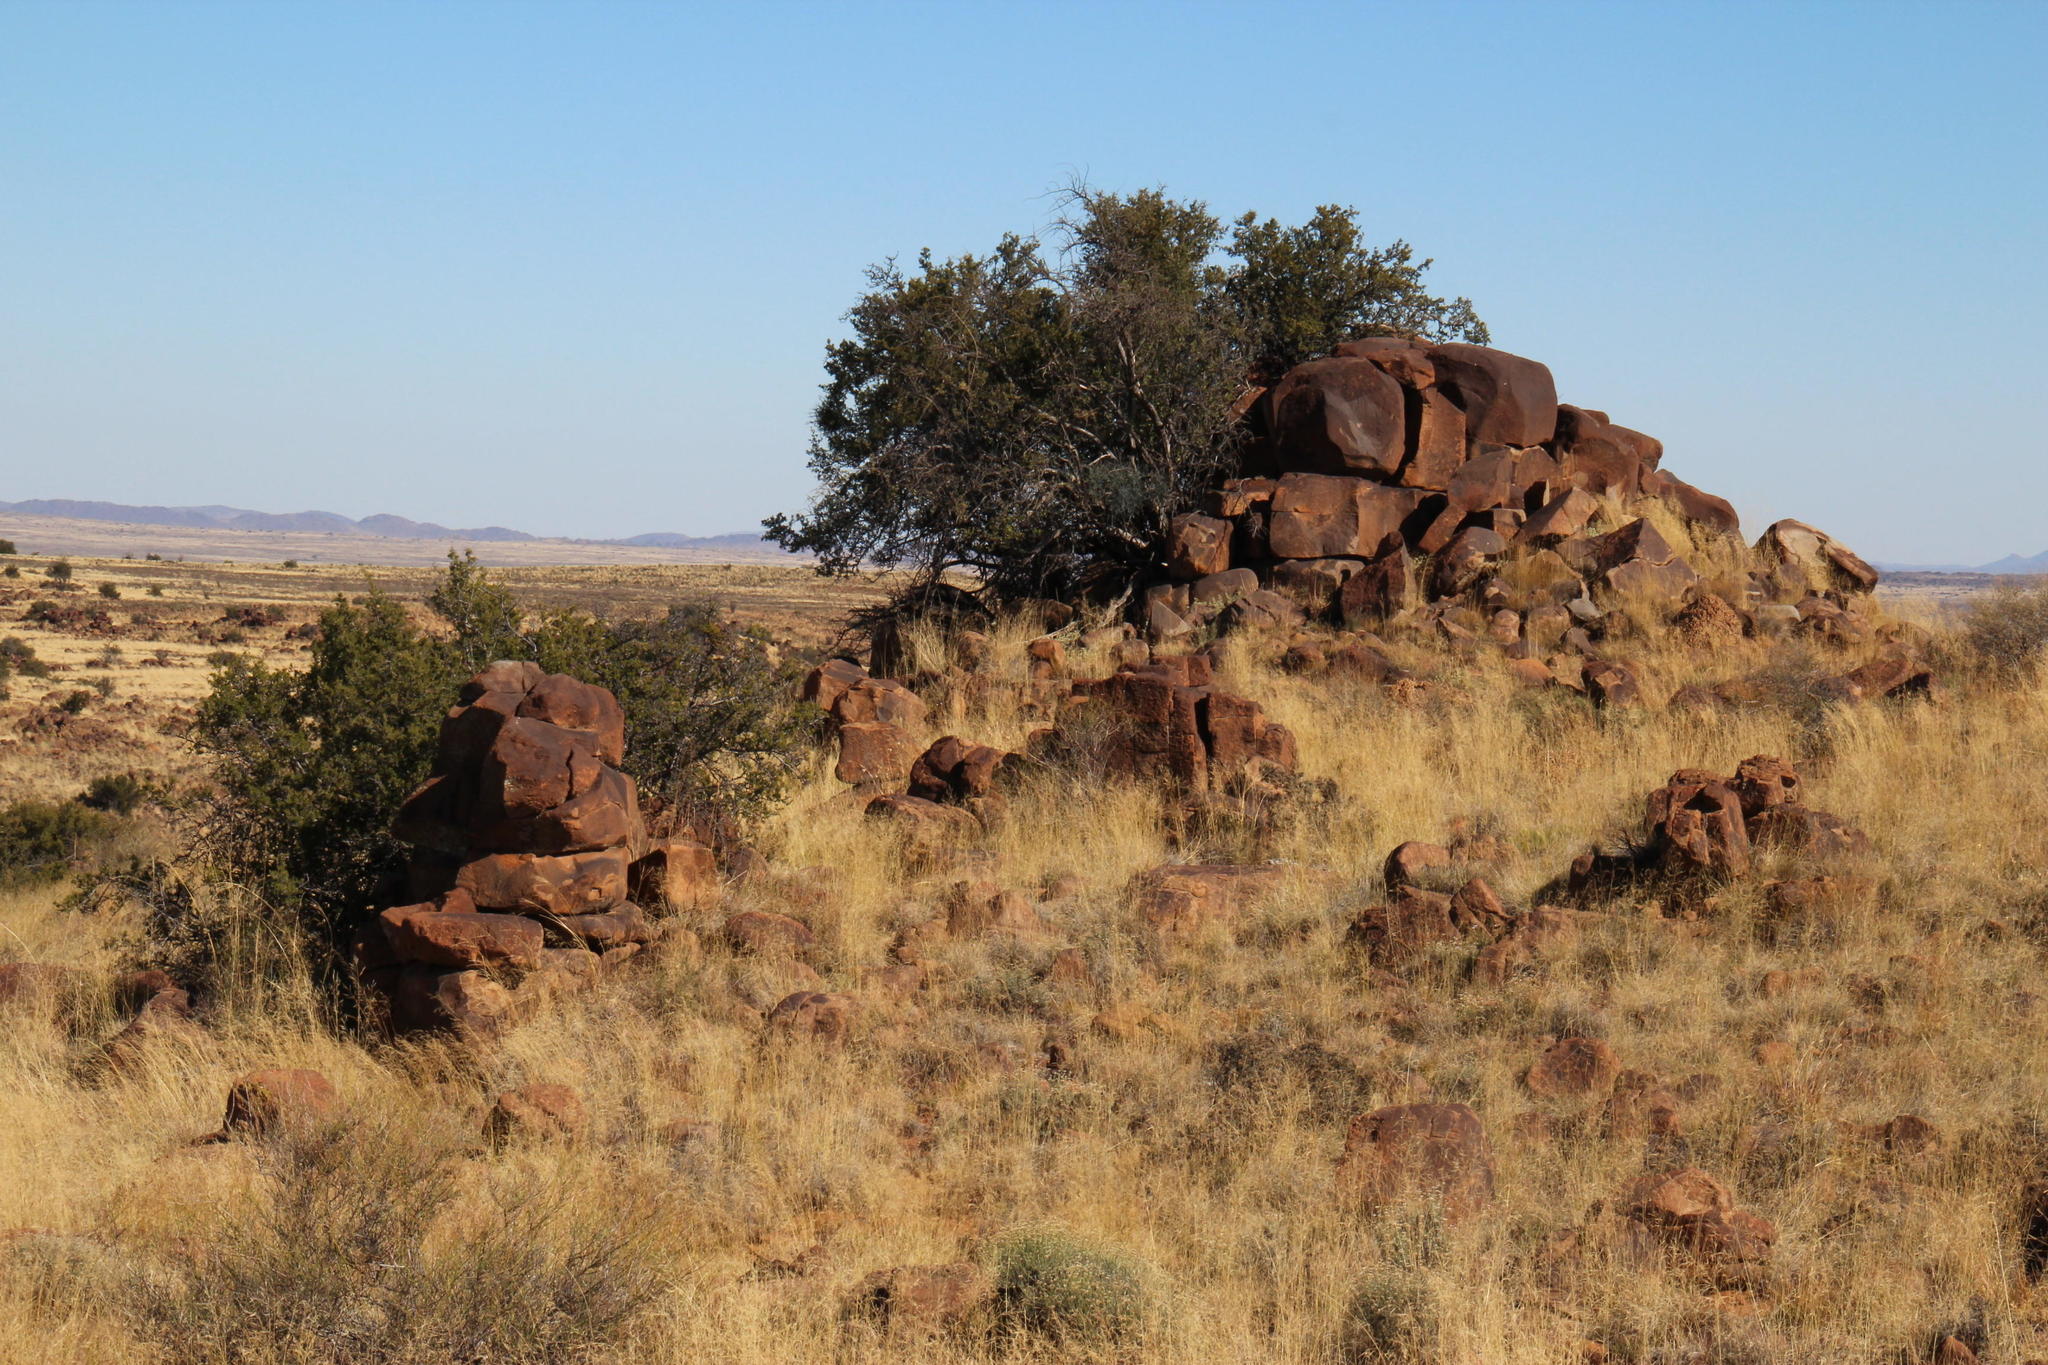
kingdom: Plantae
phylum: Tracheophyta
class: Magnoliopsida
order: Ericales
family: Ebenaceae
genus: Diospyros
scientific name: Diospyros pubescens
